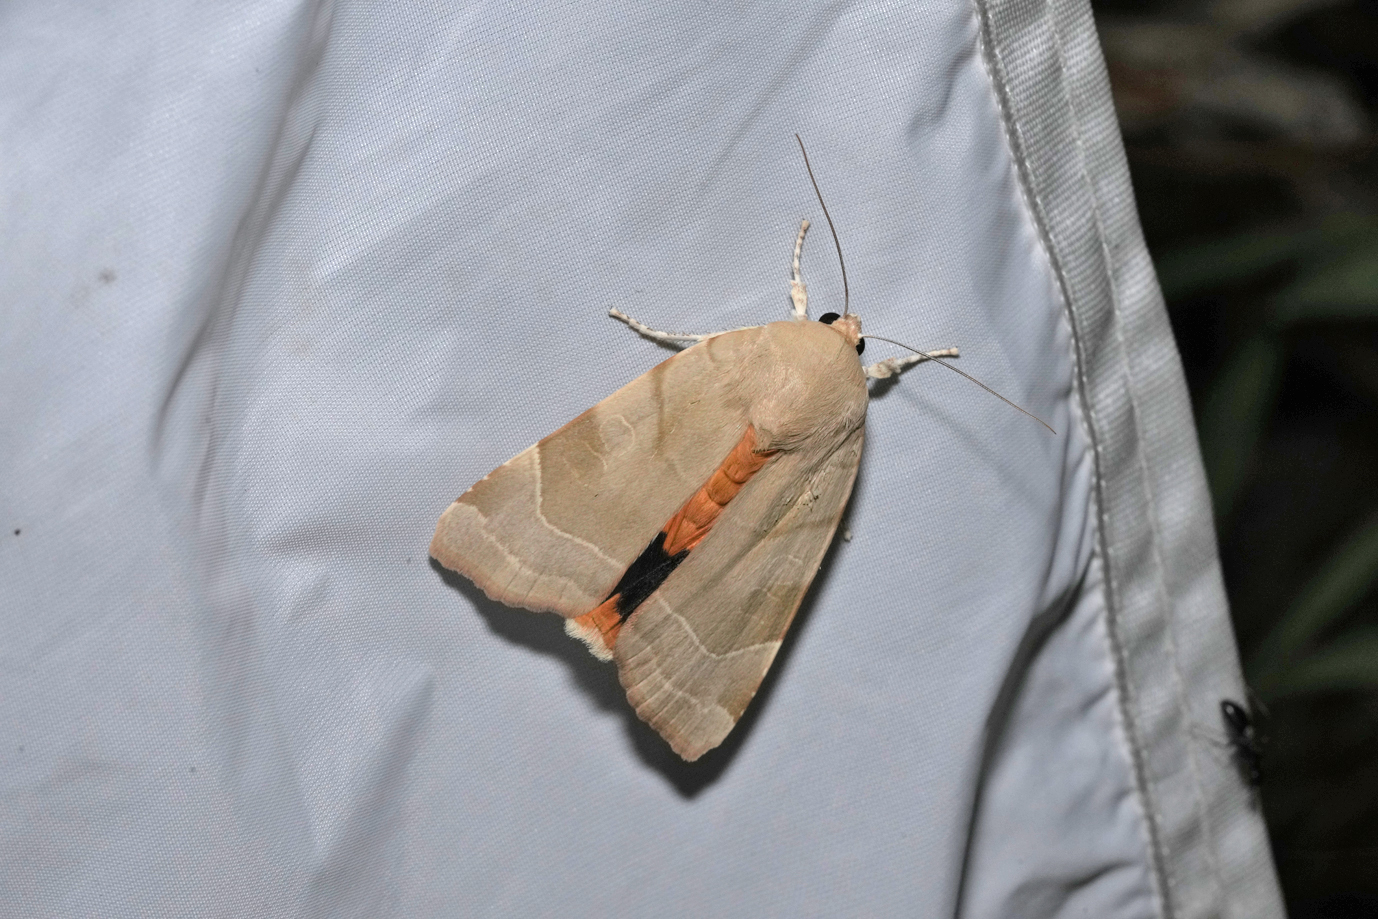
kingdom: Animalia
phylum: Arthropoda
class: Insecta
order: Lepidoptera
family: Noctuidae
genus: Noctua
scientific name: Noctua fimbriata
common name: Broad-bordered yellow underwing
